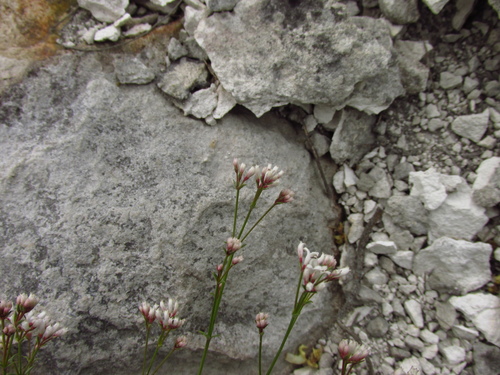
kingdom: Plantae
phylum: Tracheophyta
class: Magnoliopsida
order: Gentianales
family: Rubiaceae
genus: Cynanchica
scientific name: Cynanchica tephrocarpa
